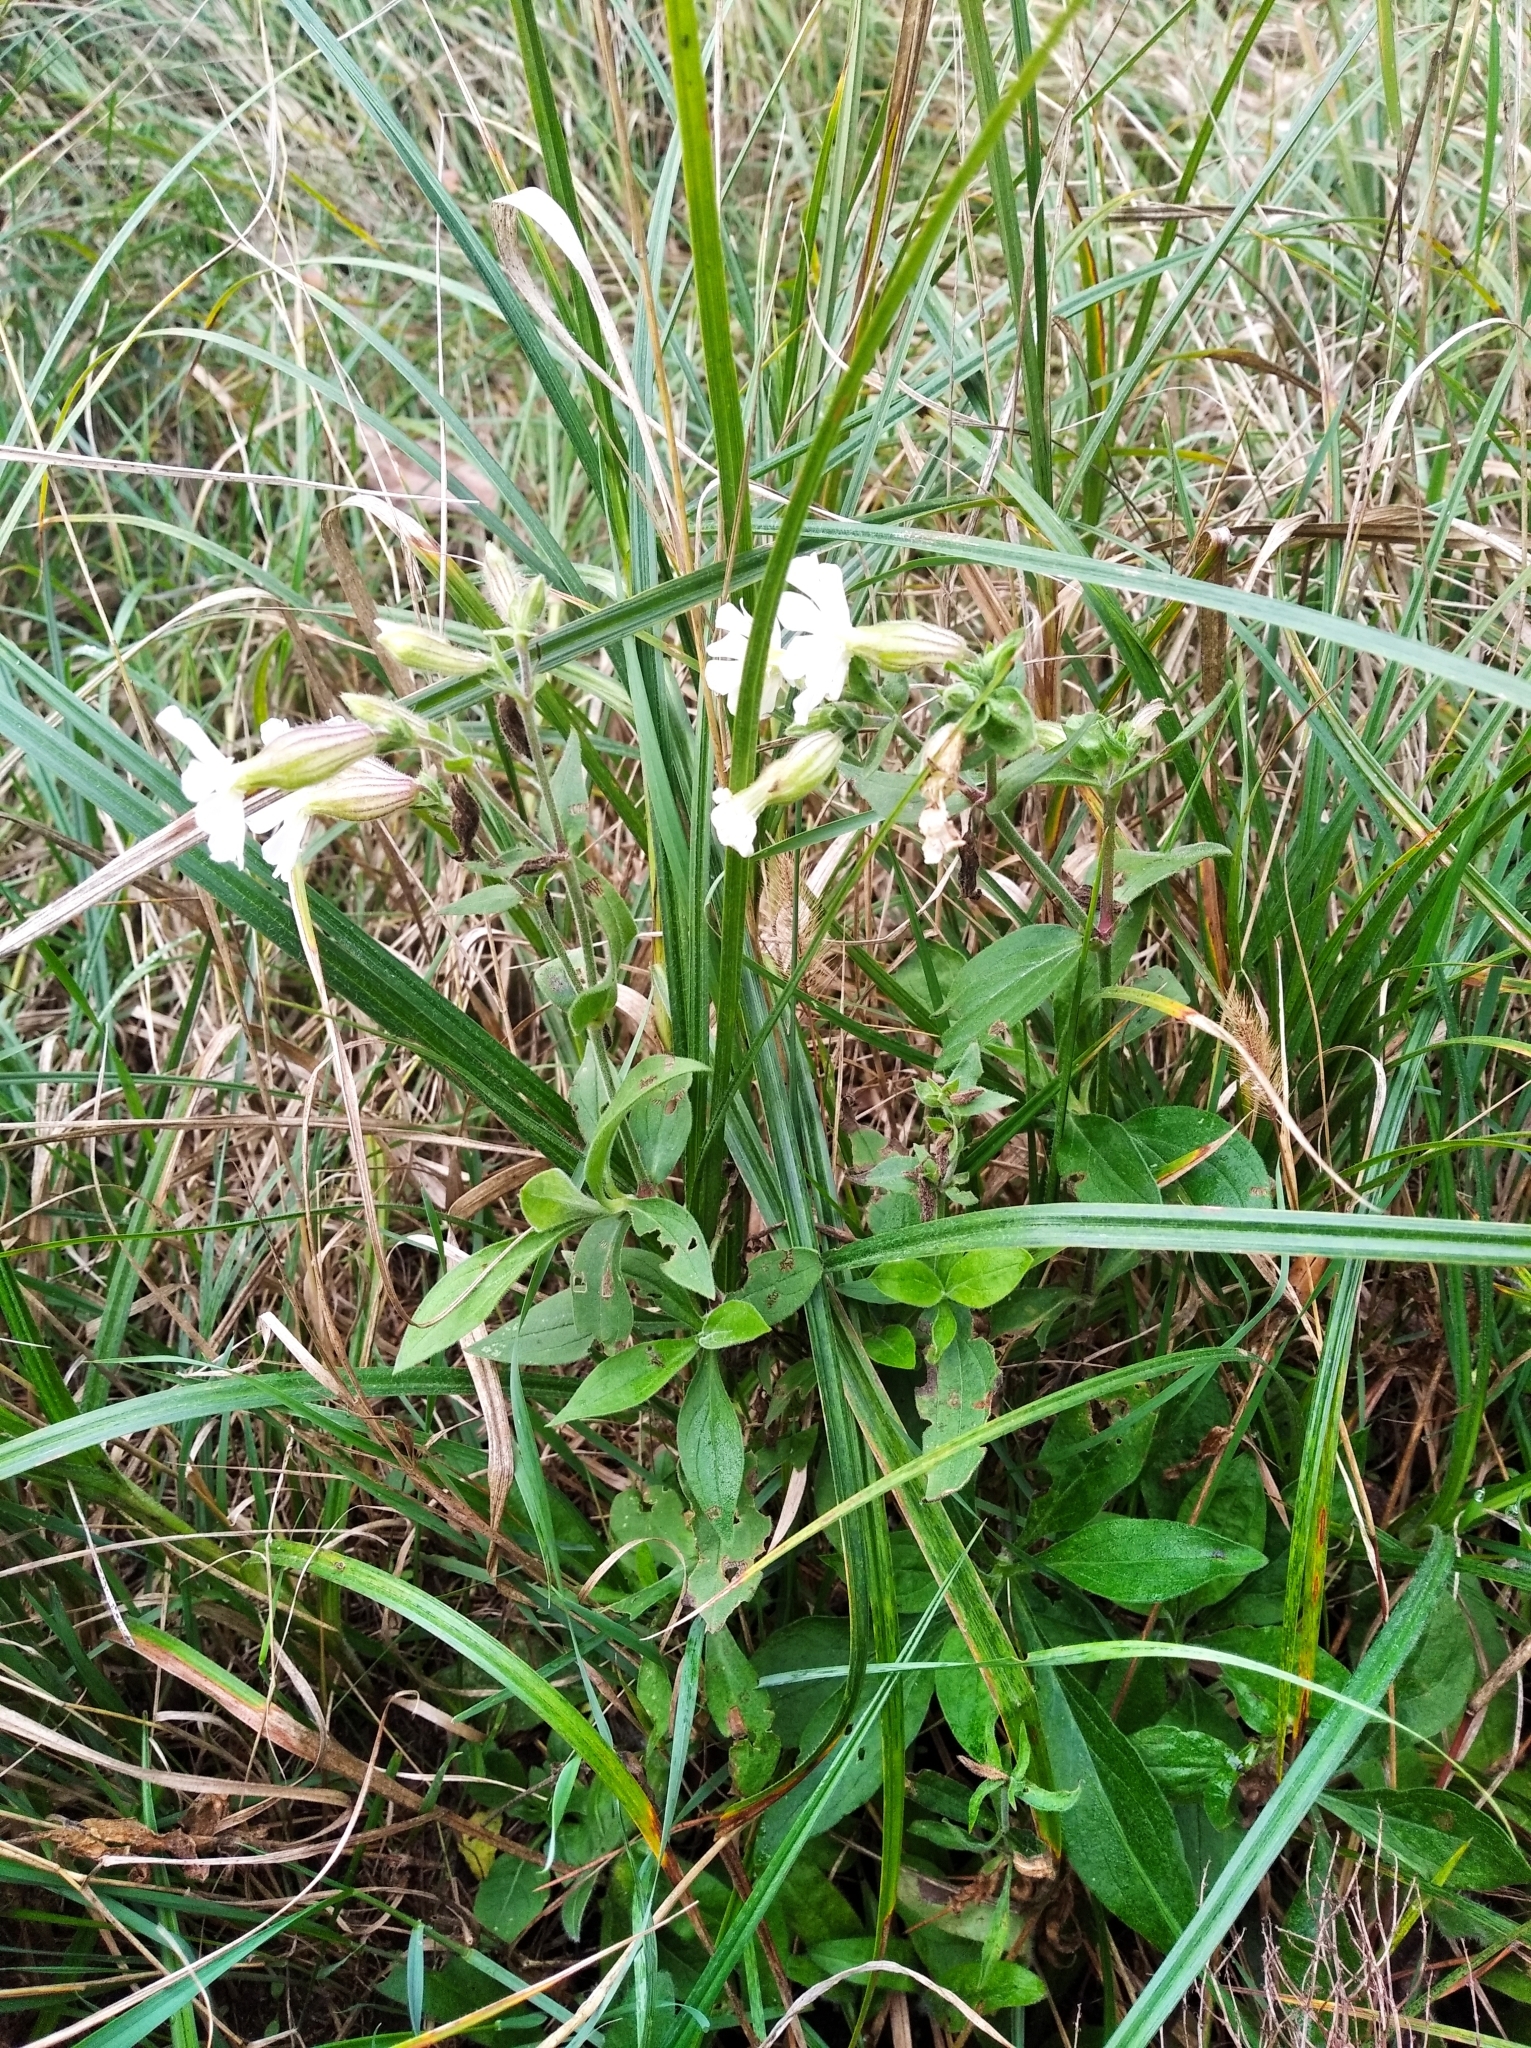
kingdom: Plantae
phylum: Tracheophyta
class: Magnoliopsida
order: Caryophyllales
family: Caryophyllaceae
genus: Silene
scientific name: Silene latifolia
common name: White campion
